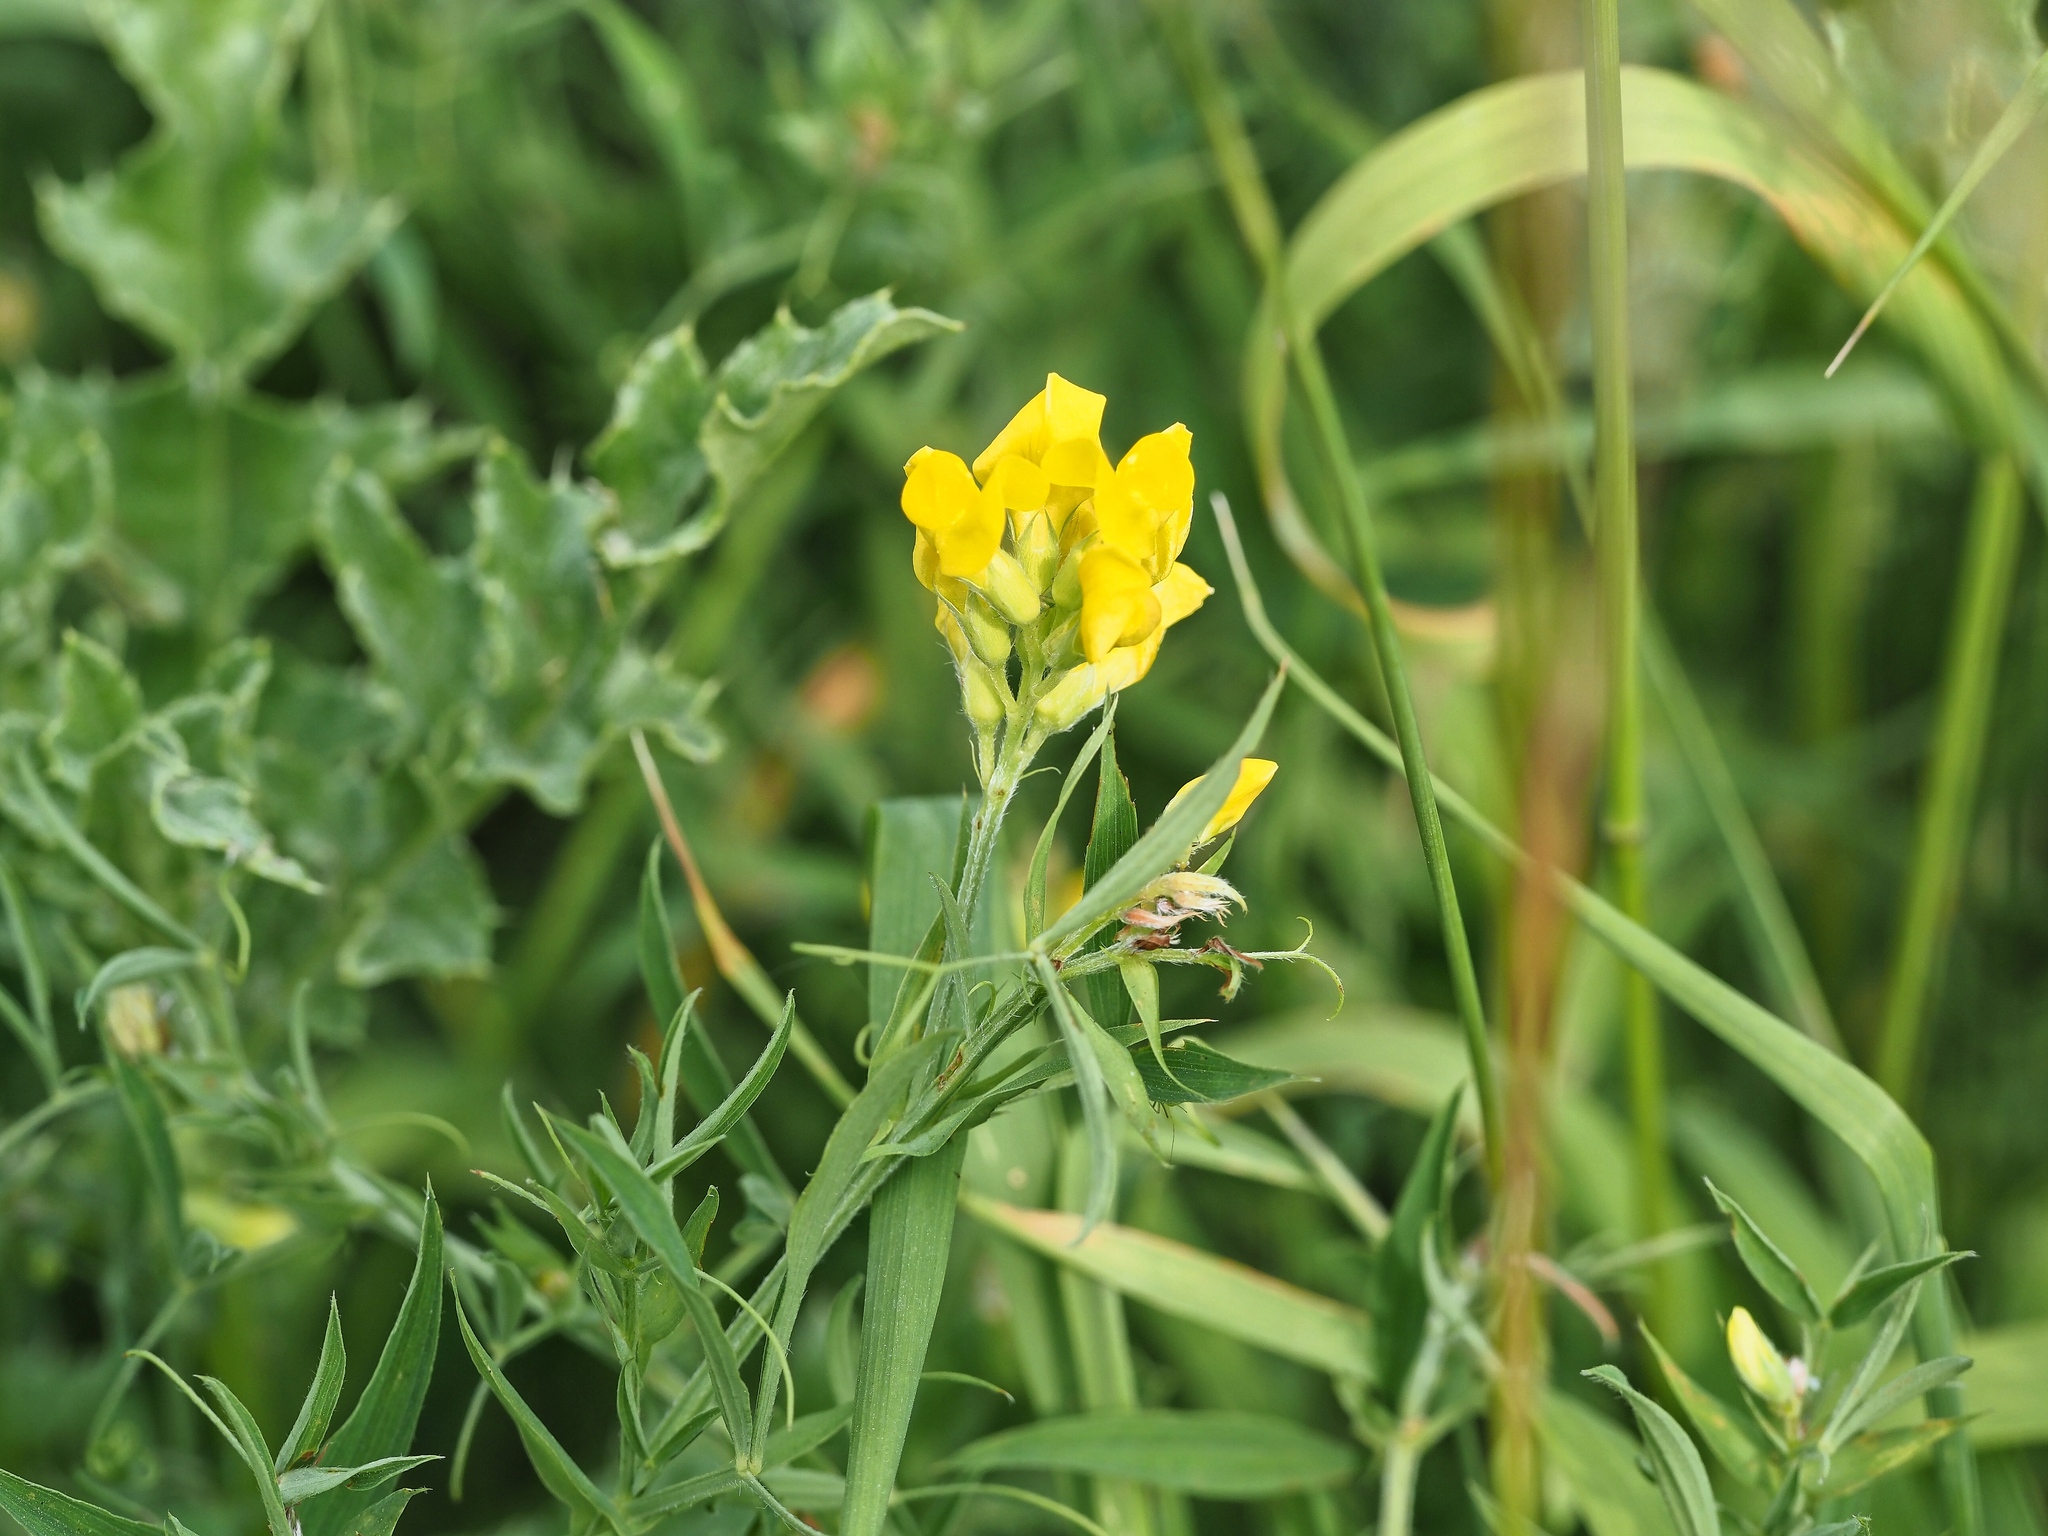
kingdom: Plantae
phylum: Tracheophyta
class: Magnoliopsida
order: Fabales
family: Fabaceae
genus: Lathyrus
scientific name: Lathyrus pratensis
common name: Meadow vetchling
